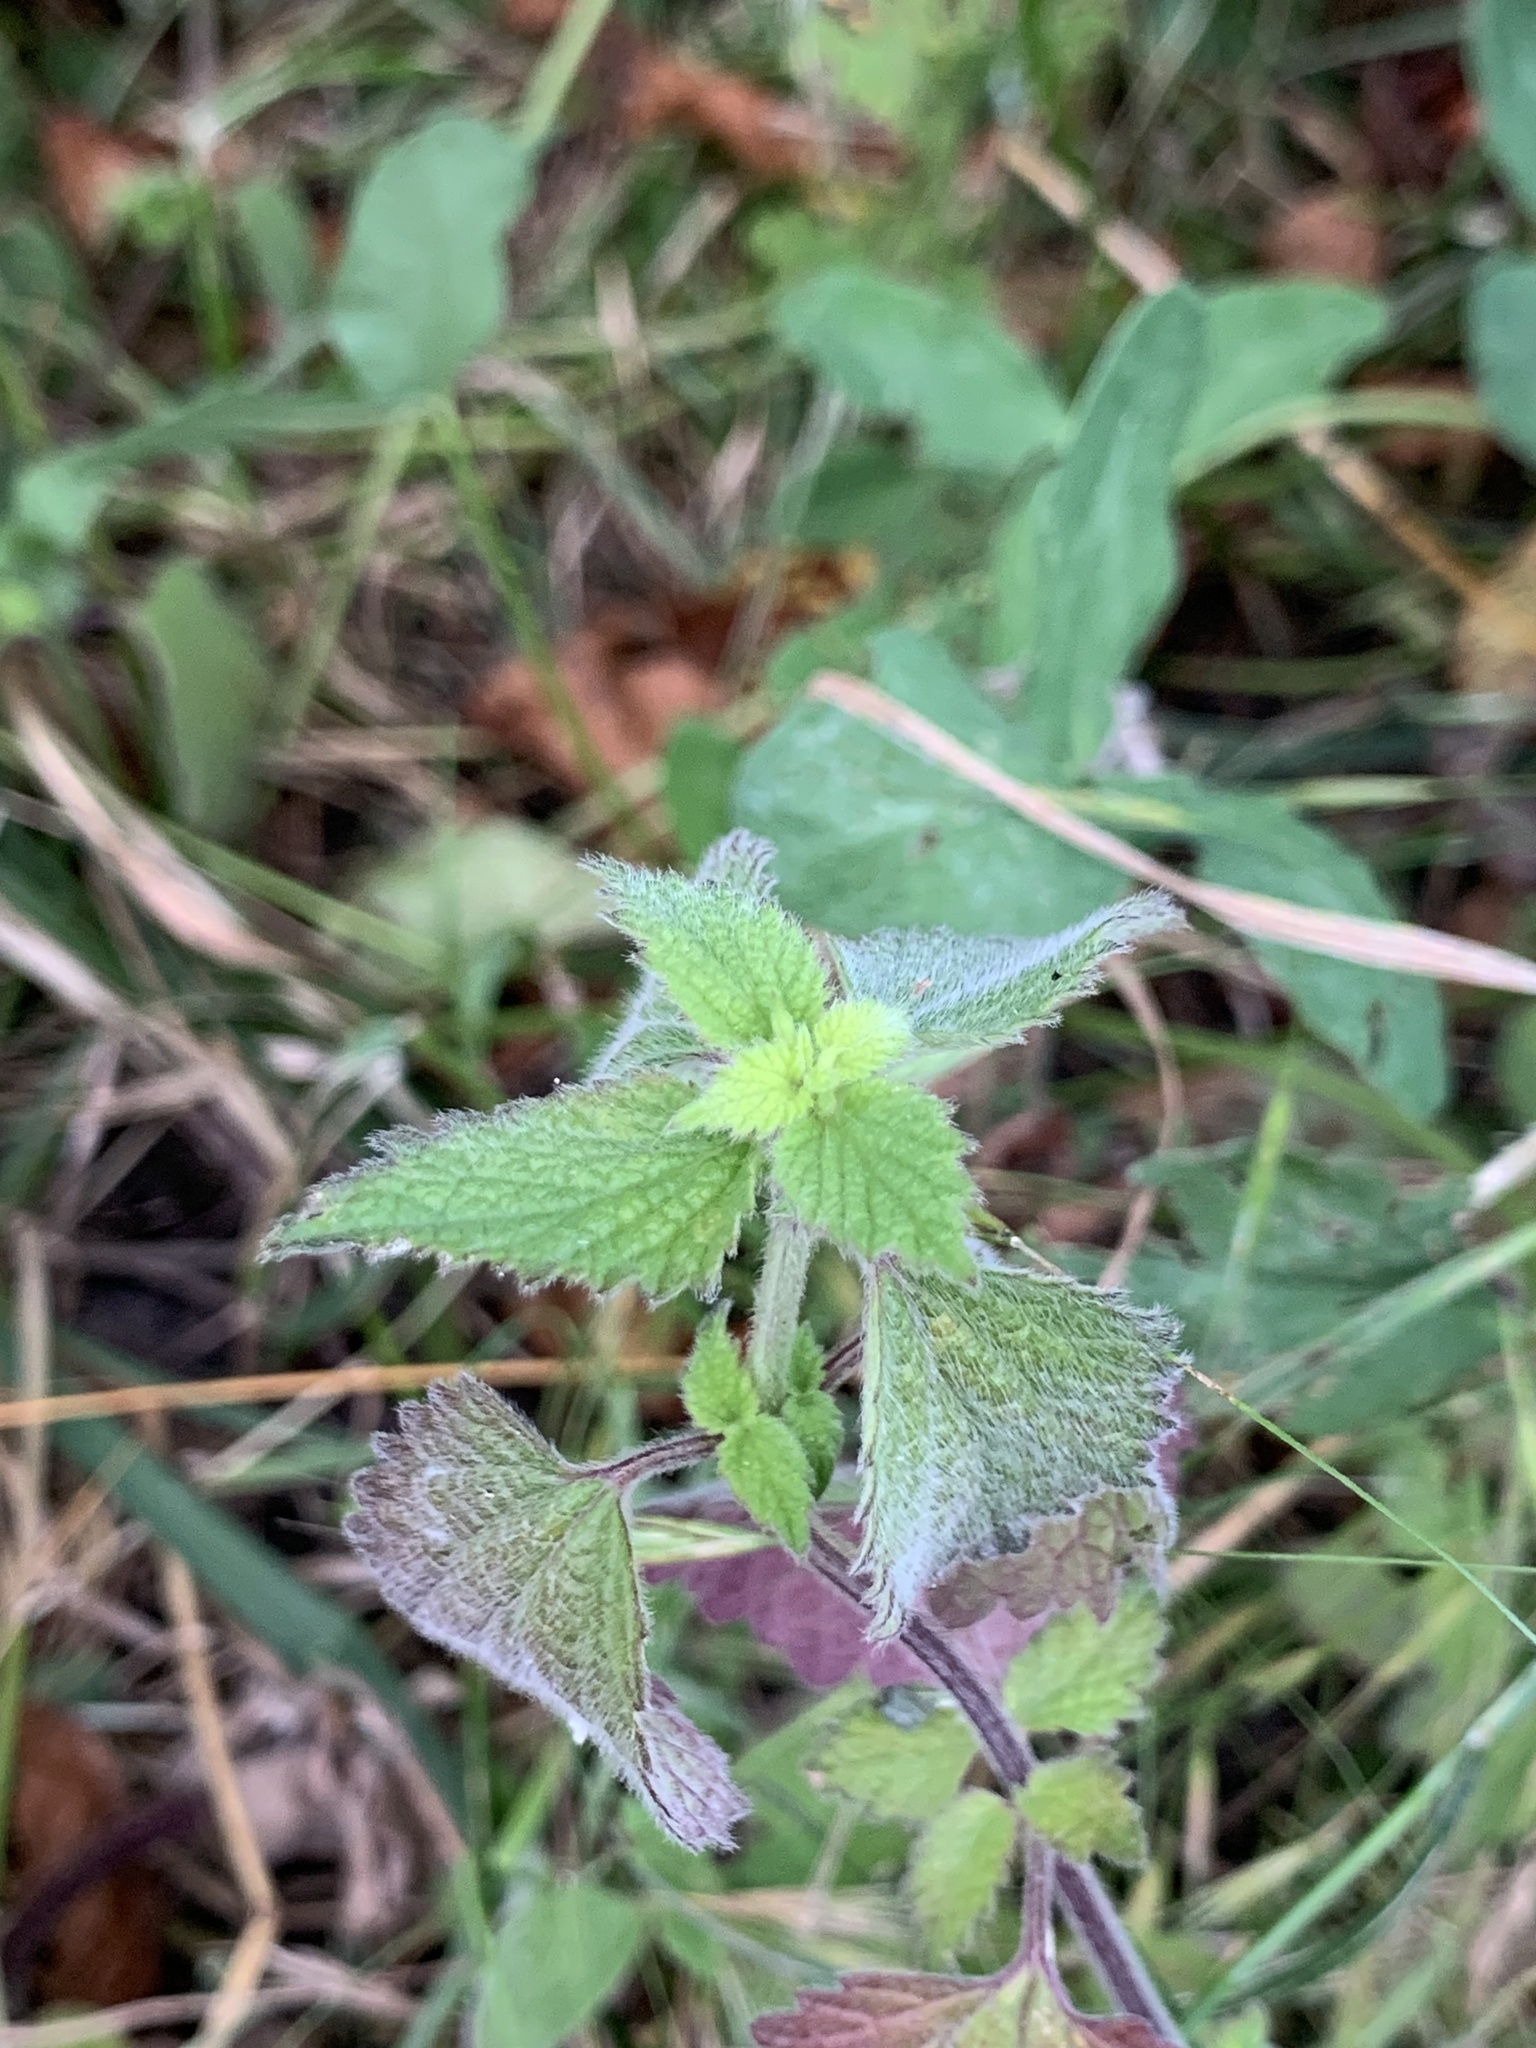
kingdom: Plantae
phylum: Tracheophyta
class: Magnoliopsida
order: Lamiales
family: Lamiaceae
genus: Ballota
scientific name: Ballota nigra
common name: Black horehound
